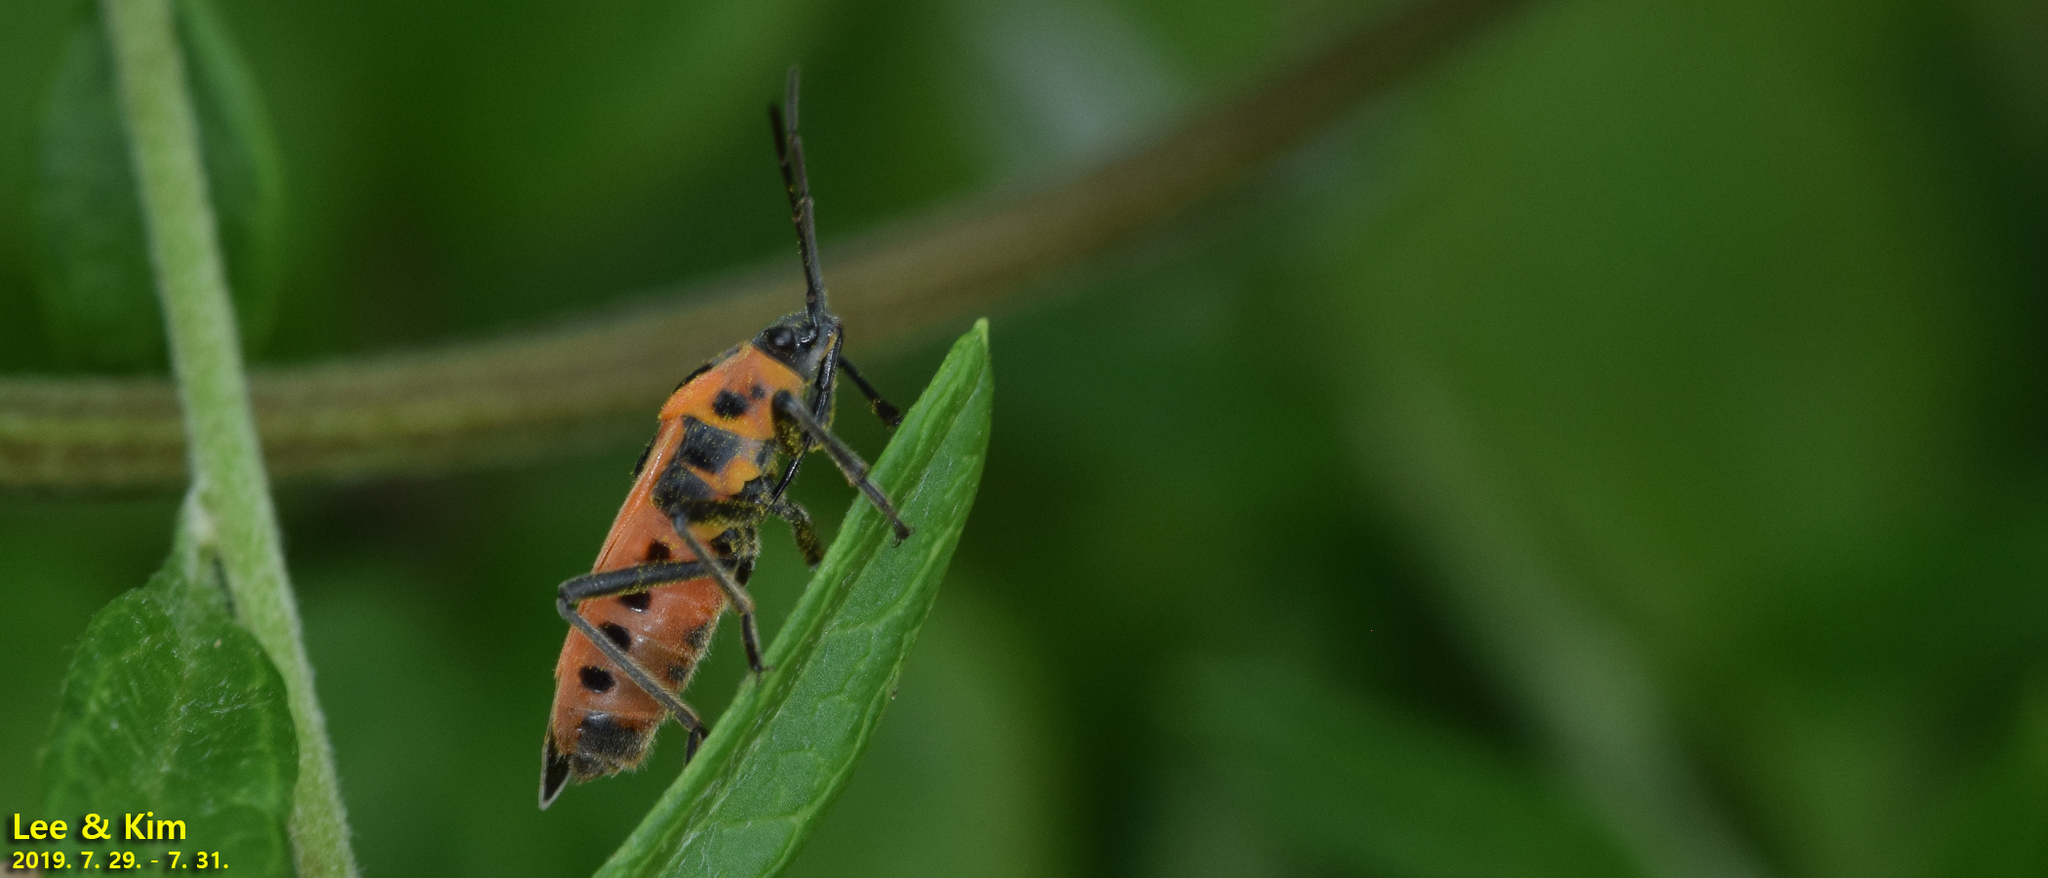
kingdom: Animalia
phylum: Arthropoda
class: Insecta
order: Hemiptera
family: Lygaeidae
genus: Tropidothorax
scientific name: Tropidothorax cruciger
